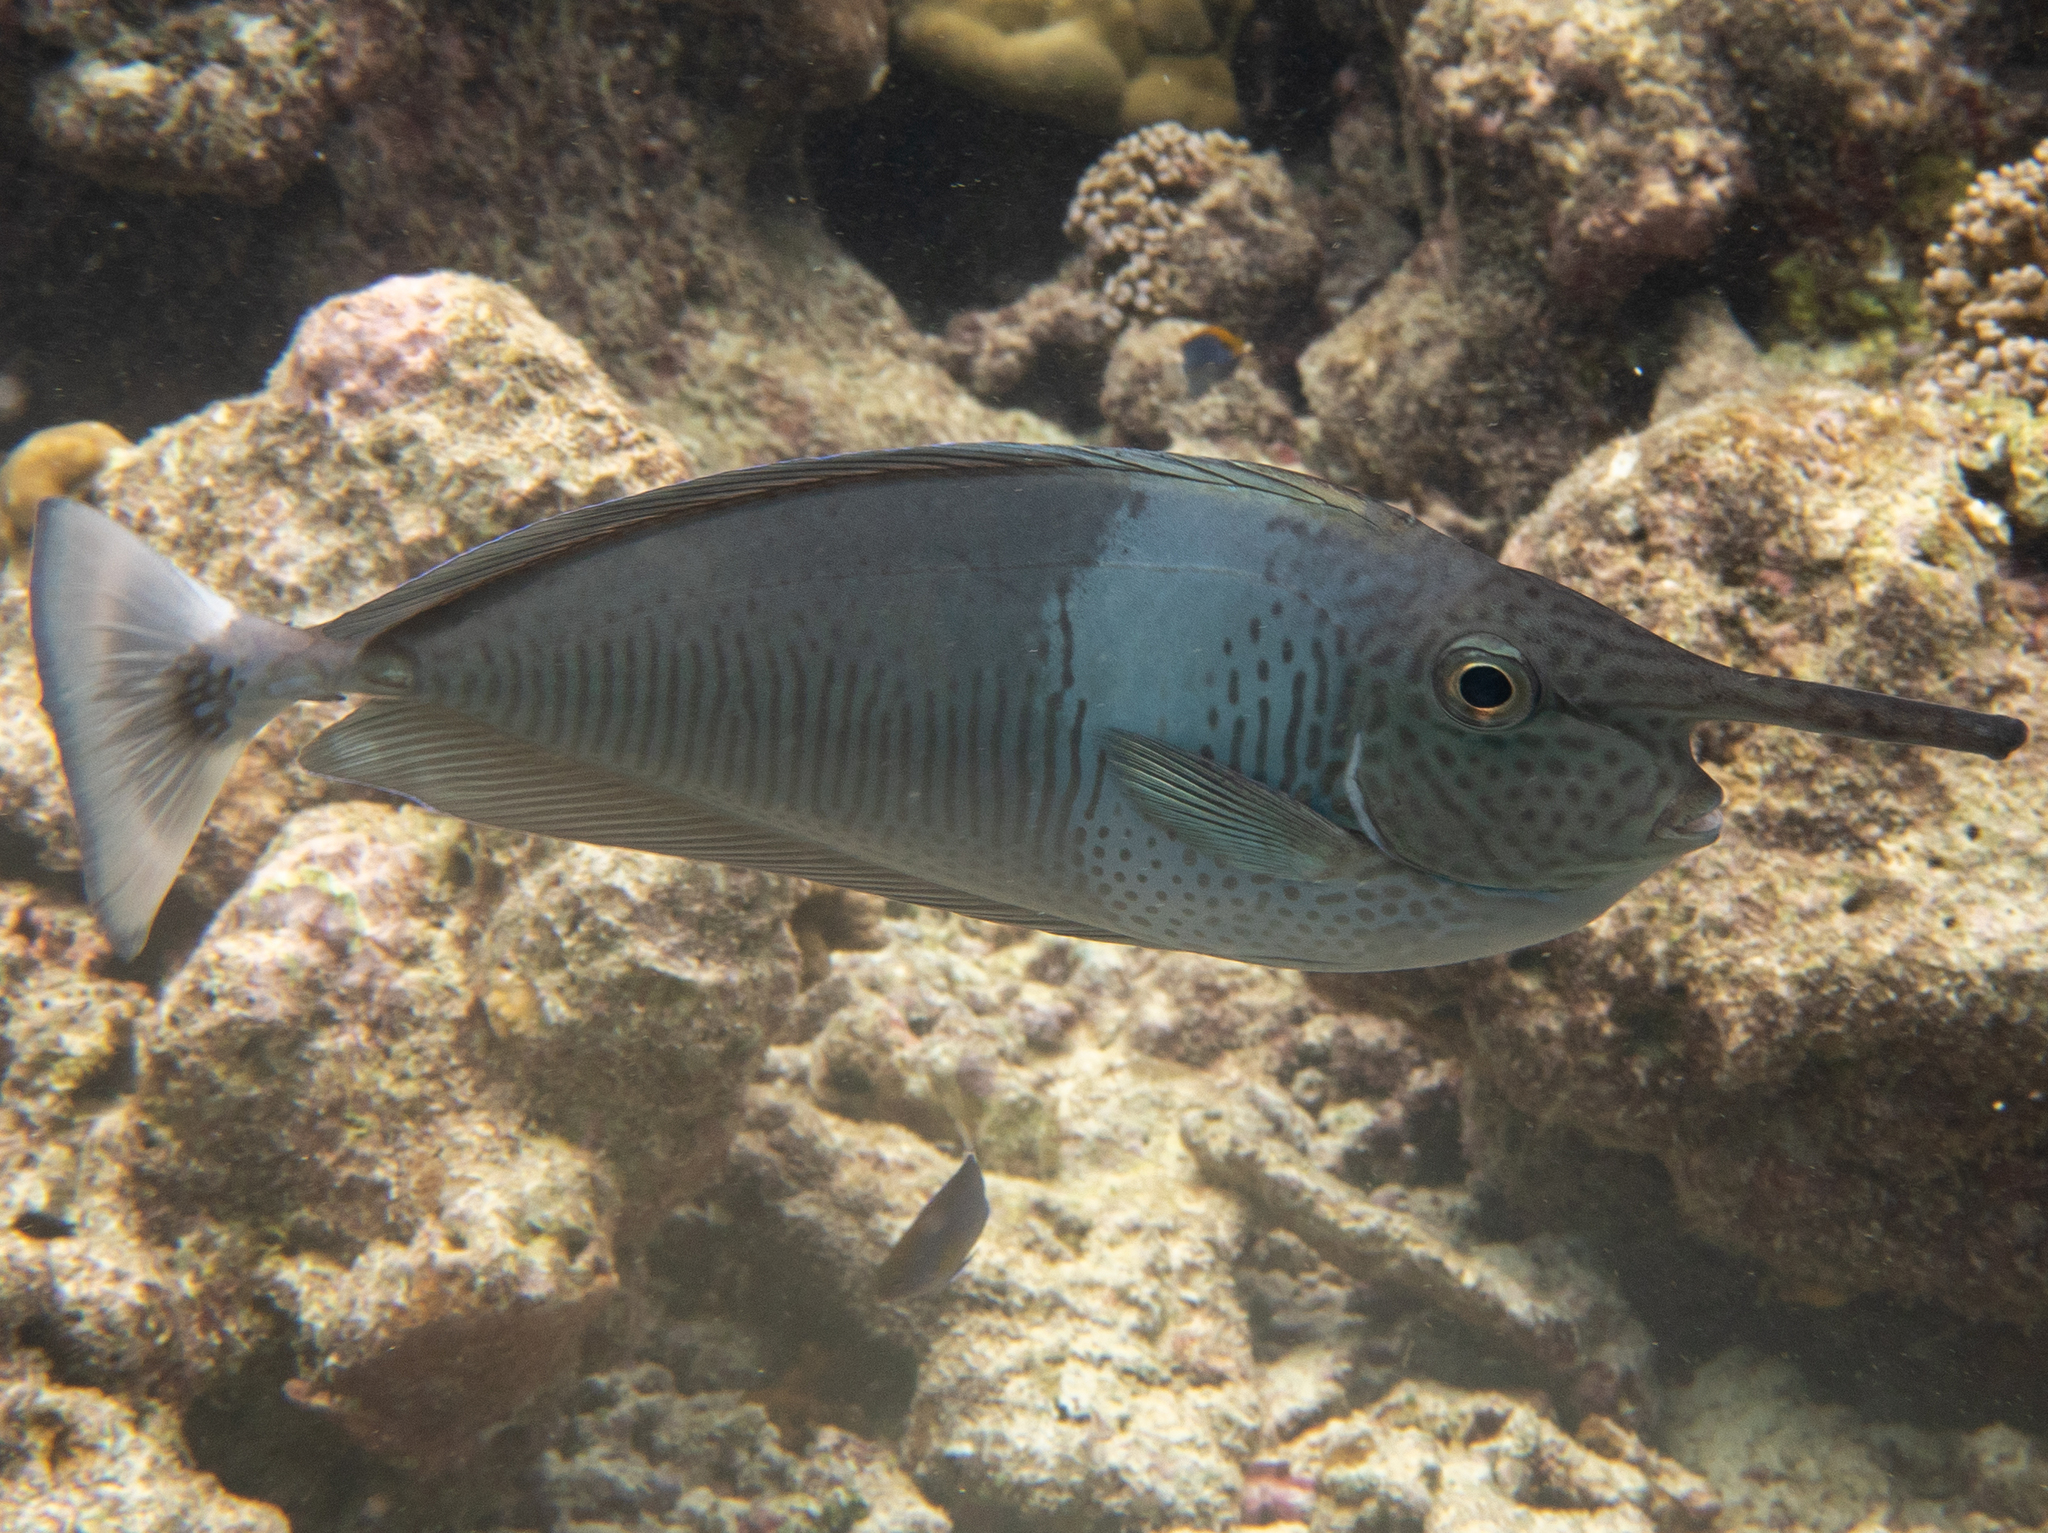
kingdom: Animalia
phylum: Chordata
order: Perciformes
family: Acanthuridae
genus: Naso
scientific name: Naso brevirostris
